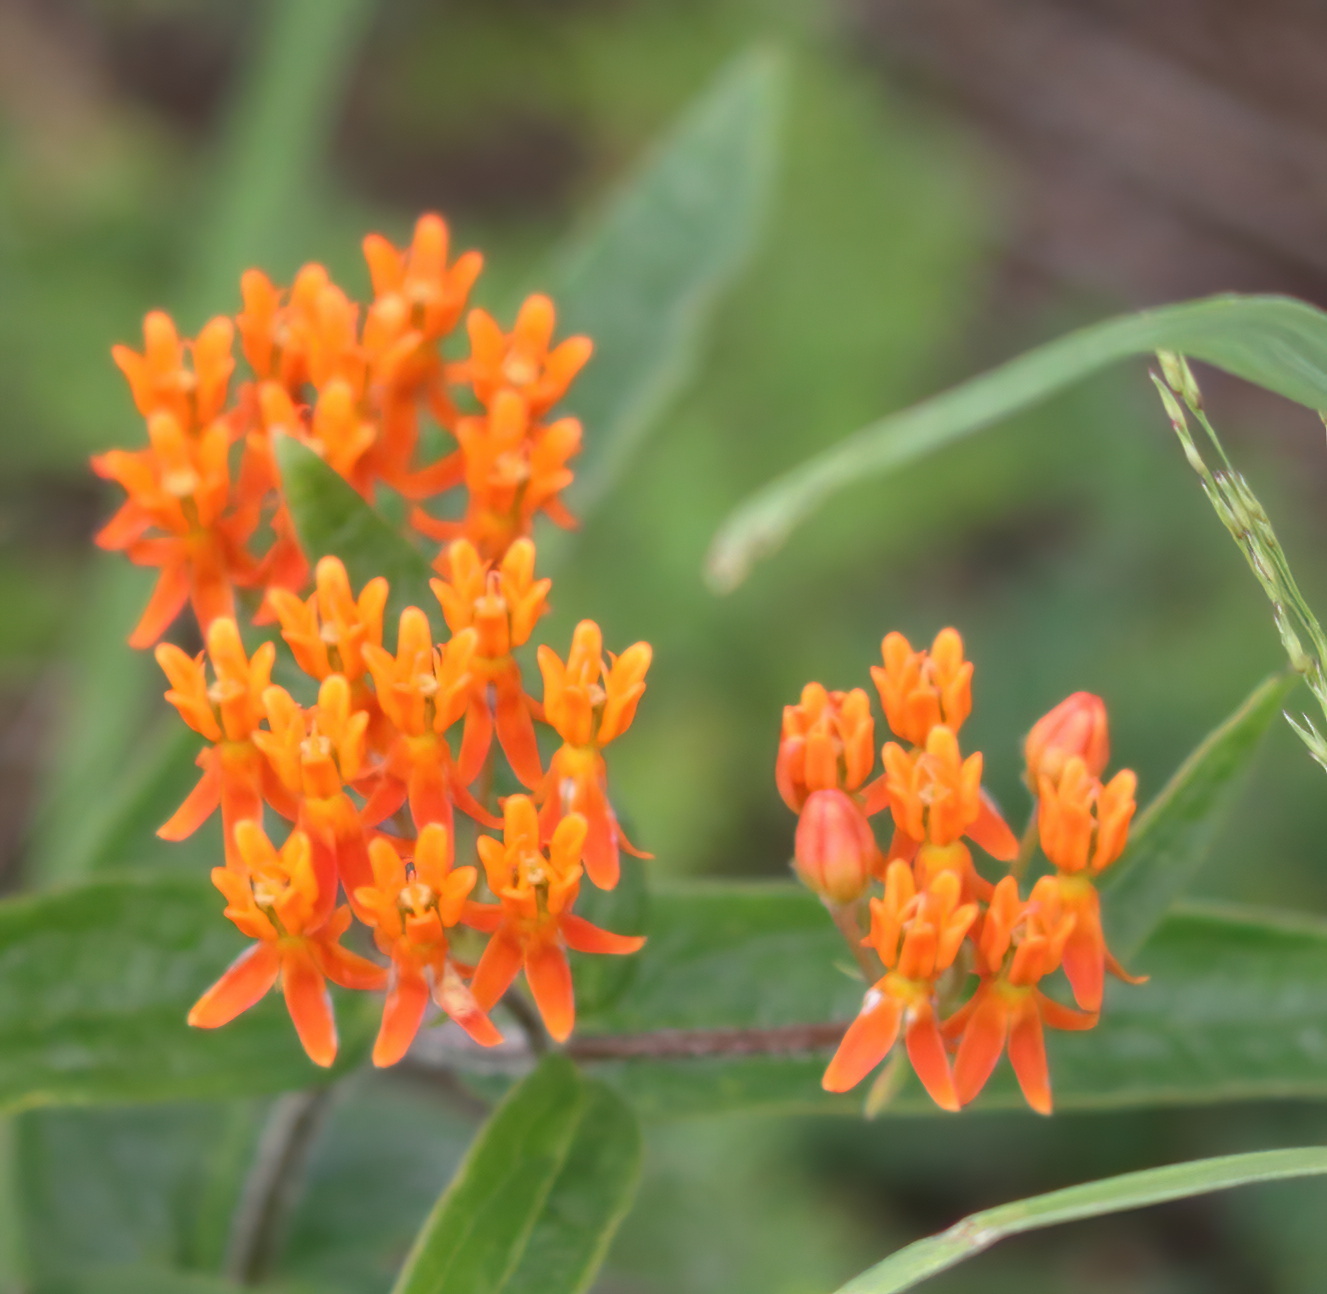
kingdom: Plantae
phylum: Tracheophyta
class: Magnoliopsida
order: Gentianales
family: Apocynaceae
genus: Asclepias
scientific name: Asclepias tuberosa
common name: Butterfly milkweed
